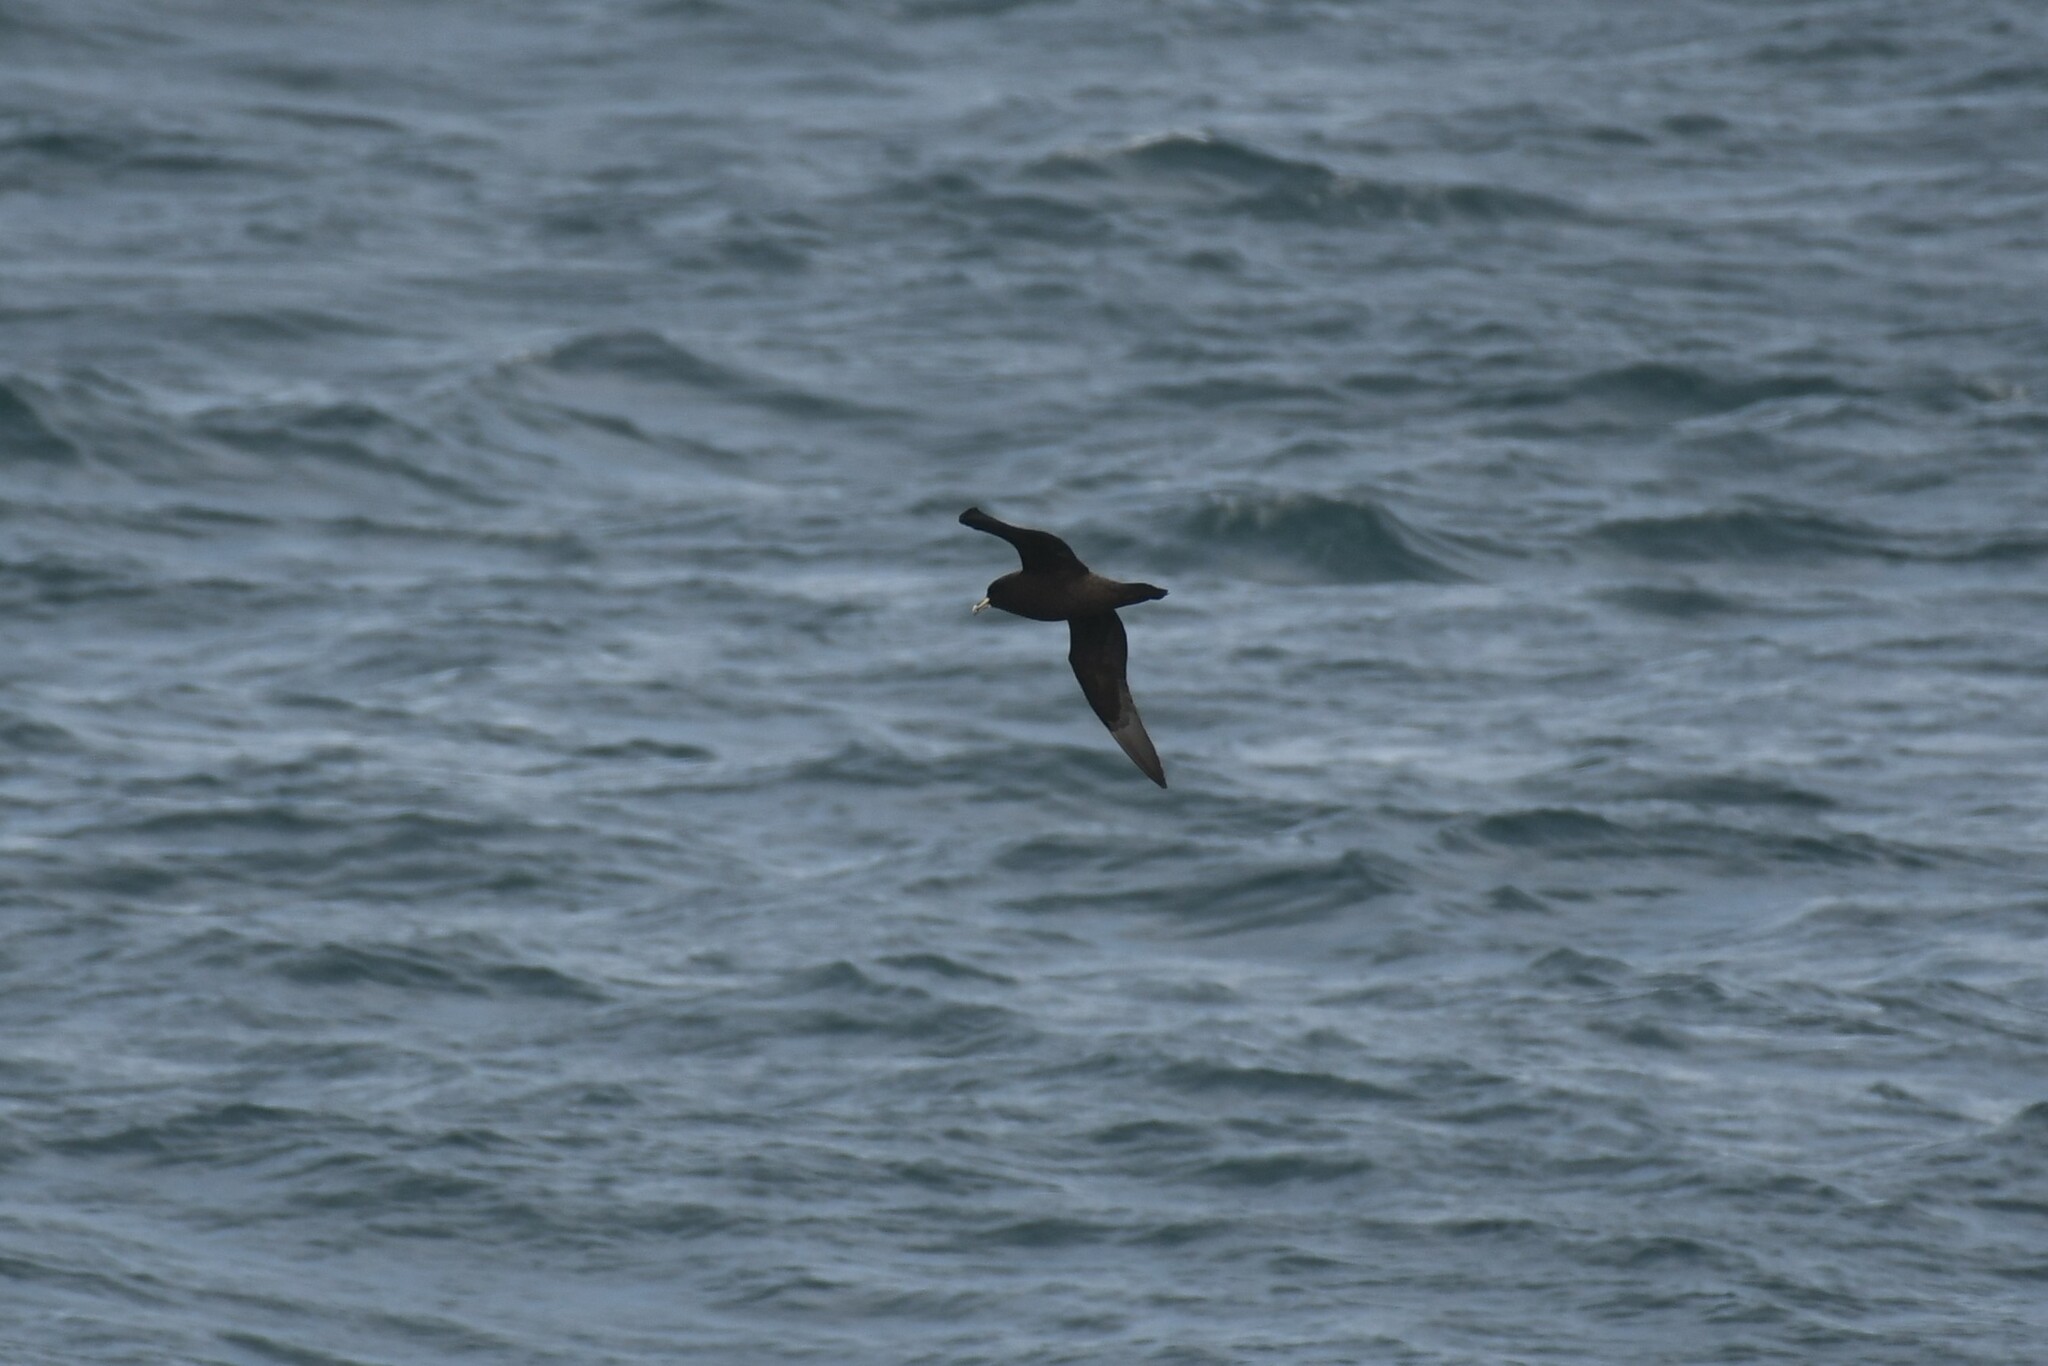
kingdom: Animalia
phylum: Chordata
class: Aves
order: Procellariiformes
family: Procellariidae
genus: Procellaria
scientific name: Procellaria aequinoctialis
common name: White-chinned petrel
